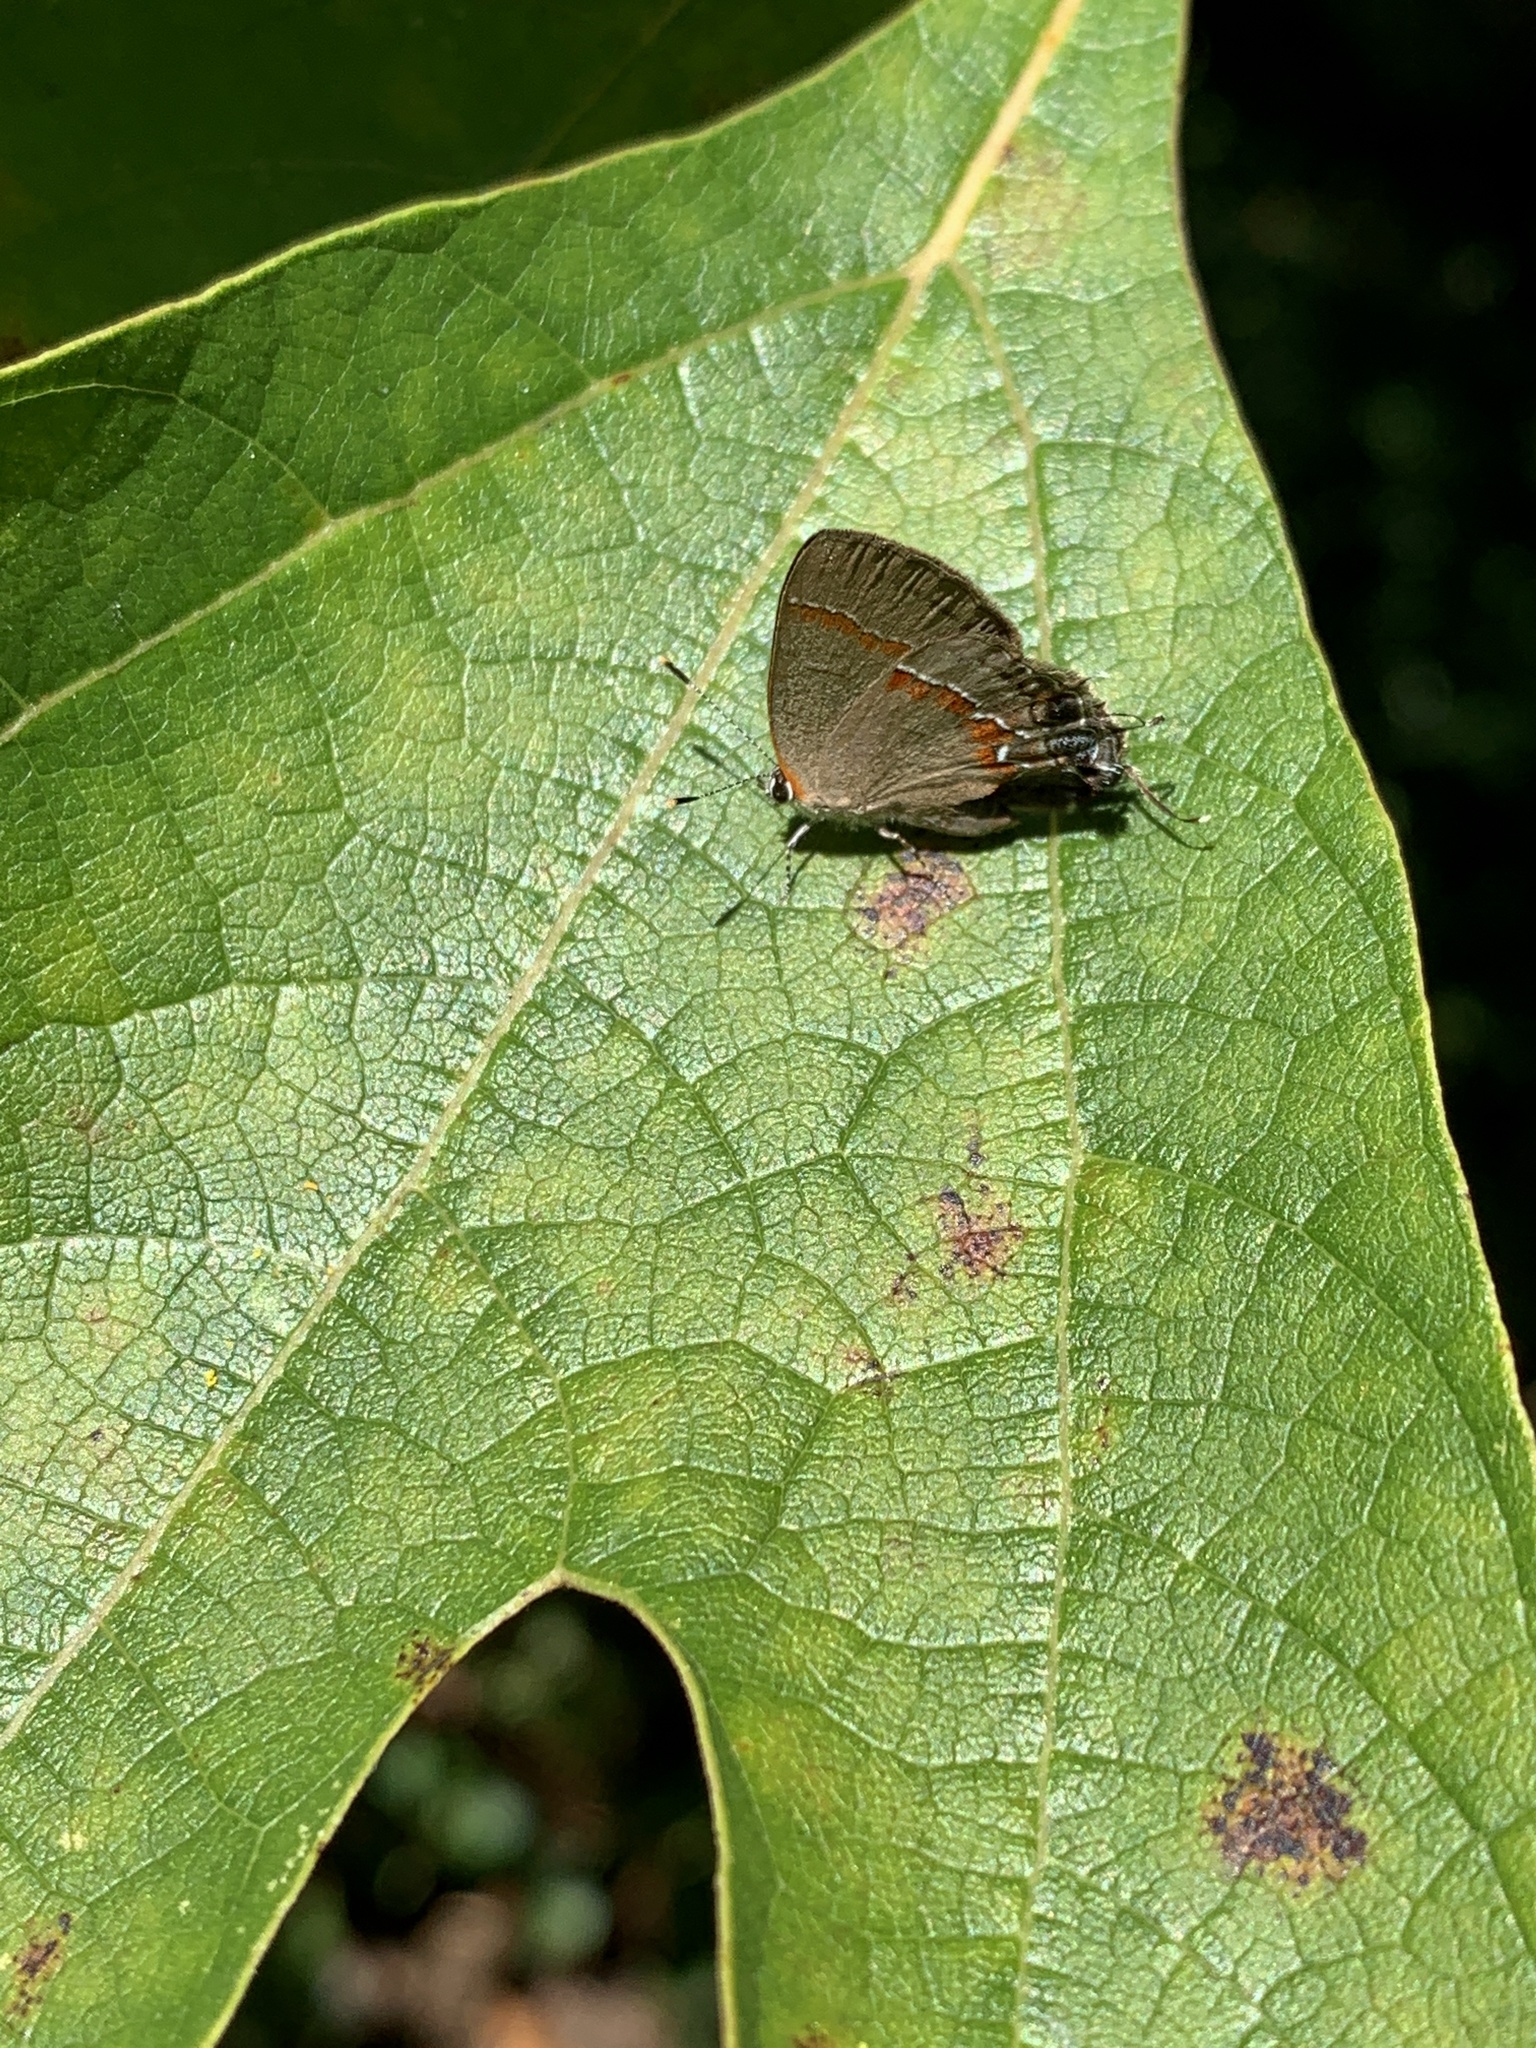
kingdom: Animalia
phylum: Arthropoda
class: Insecta
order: Lepidoptera
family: Lycaenidae
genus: Calycopis
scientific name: Calycopis cecrops
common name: Red-banded hairstreak
